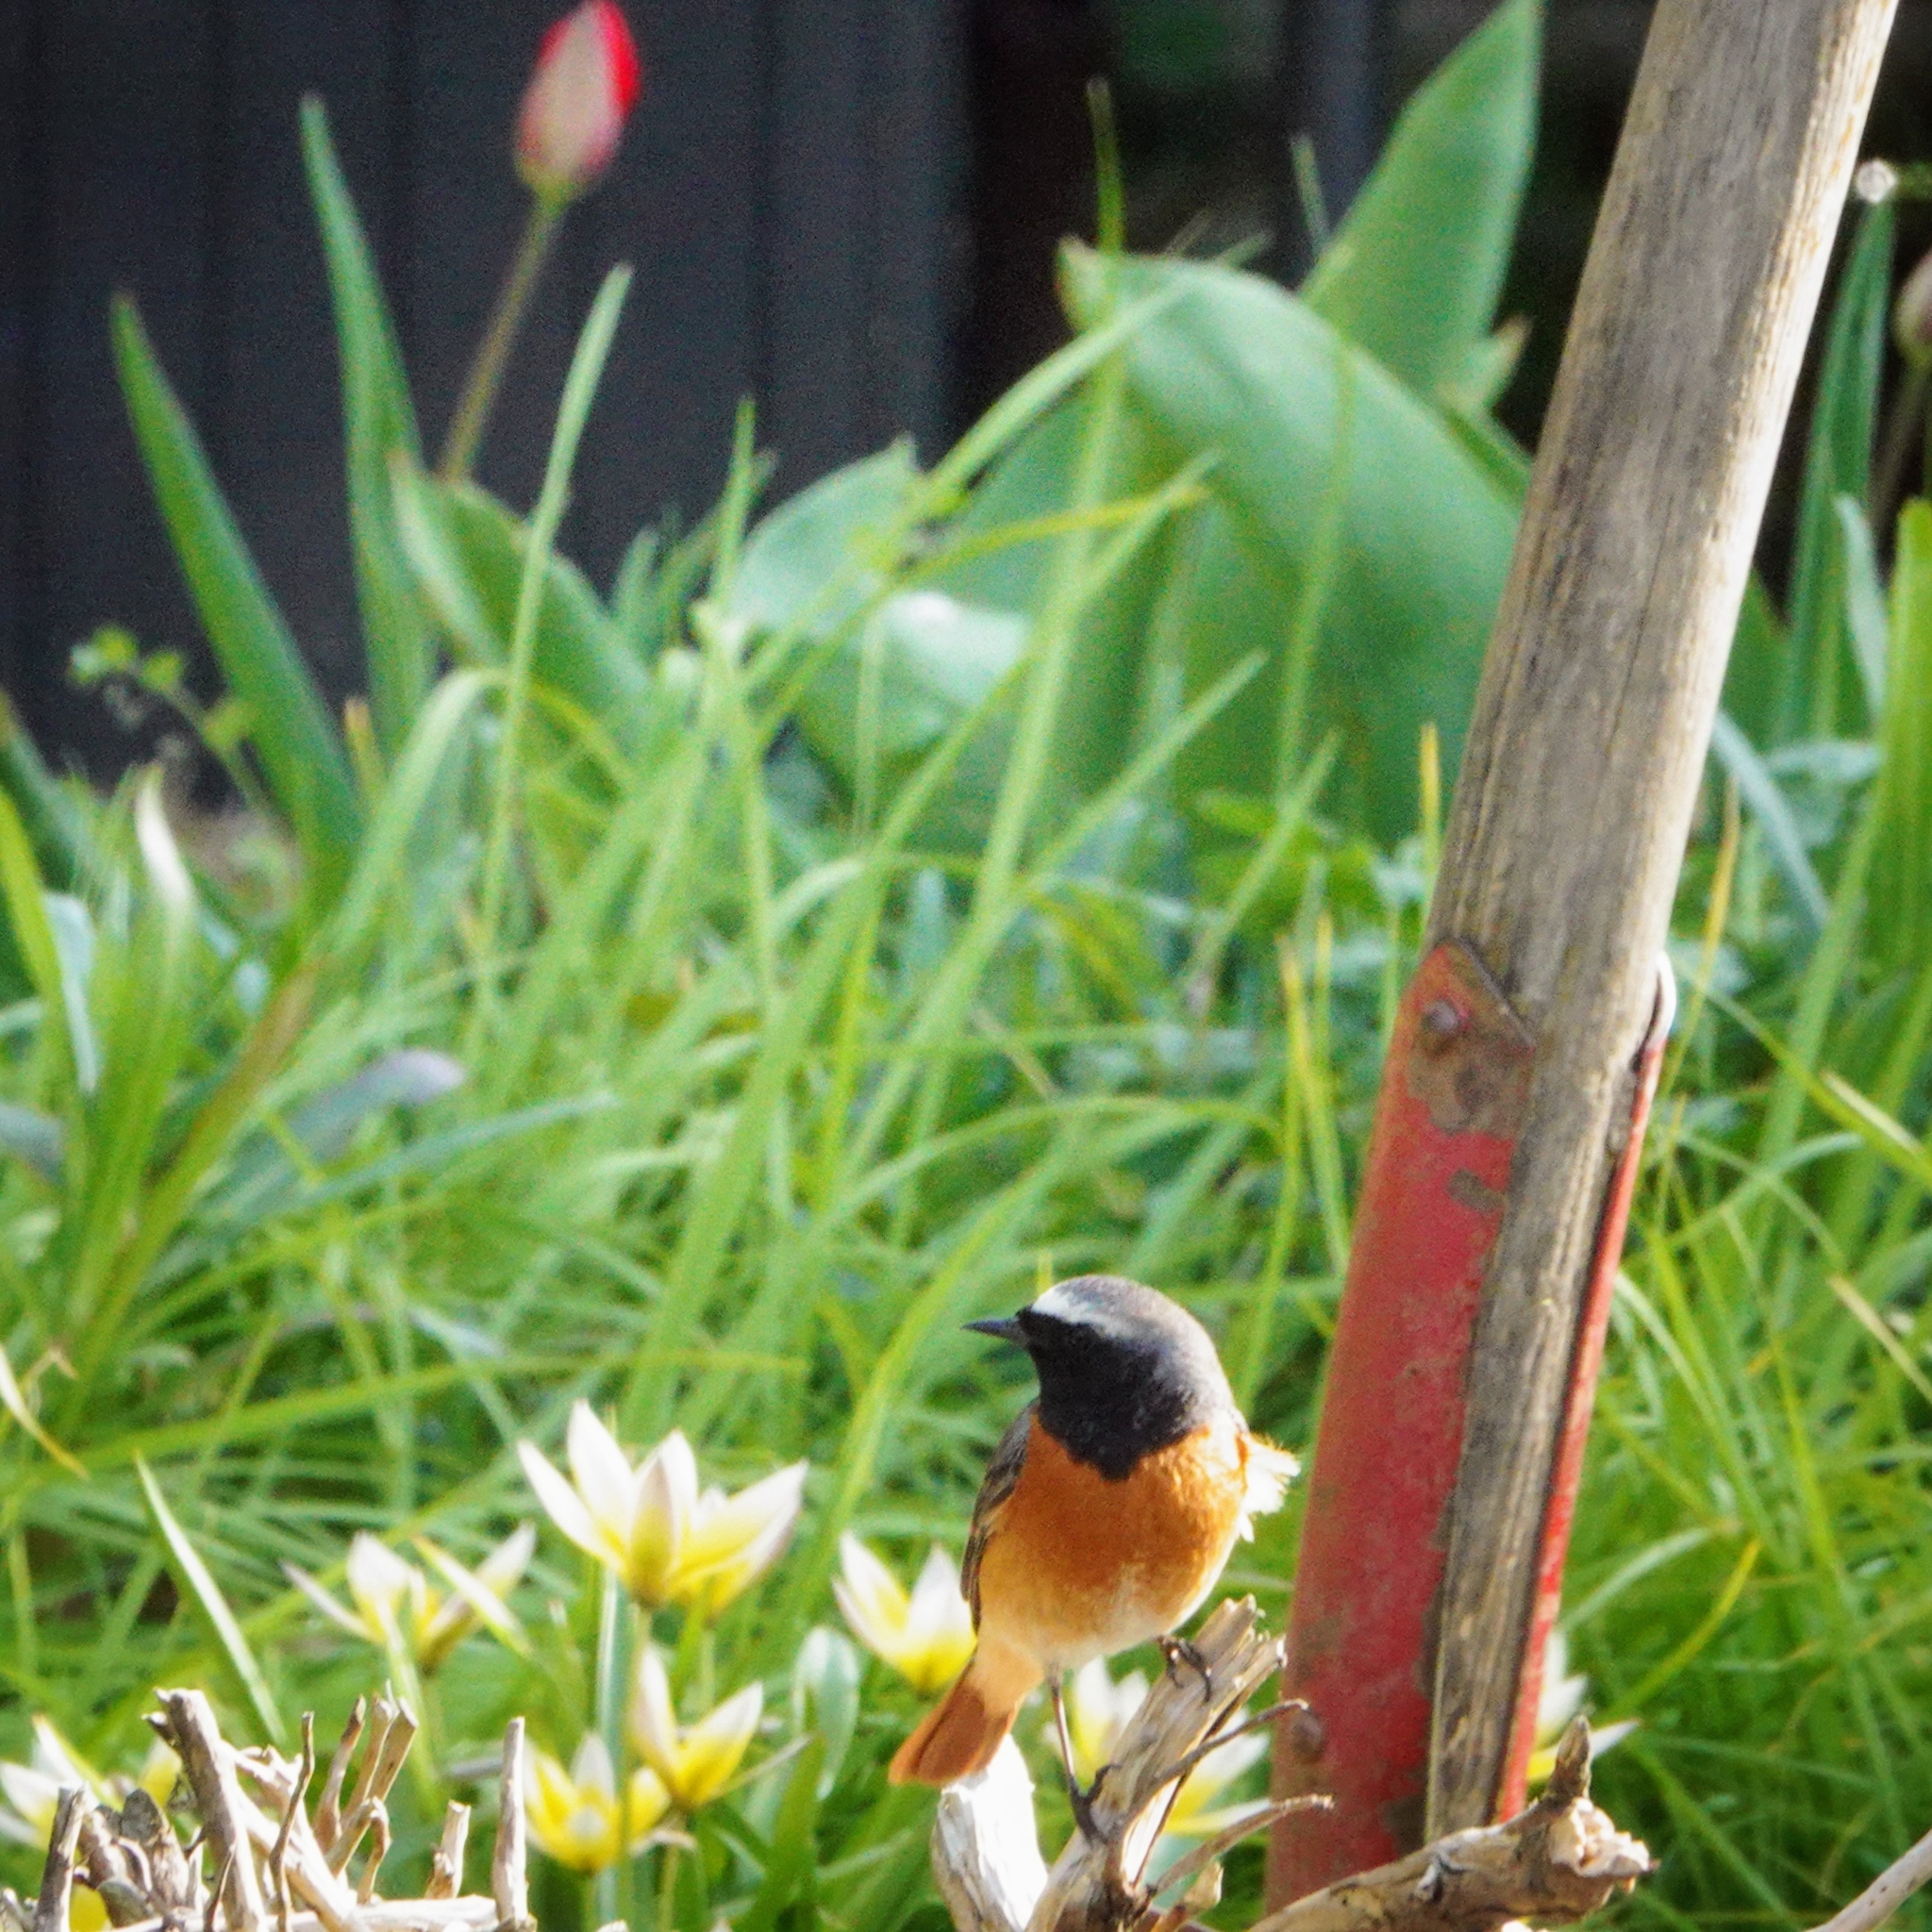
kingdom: Animalia
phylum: Chordata
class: Aves
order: Passeriformes
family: Muscicapidae
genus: Phoenicurus
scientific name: Phoenicurus phoenicurus
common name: Common redstart
